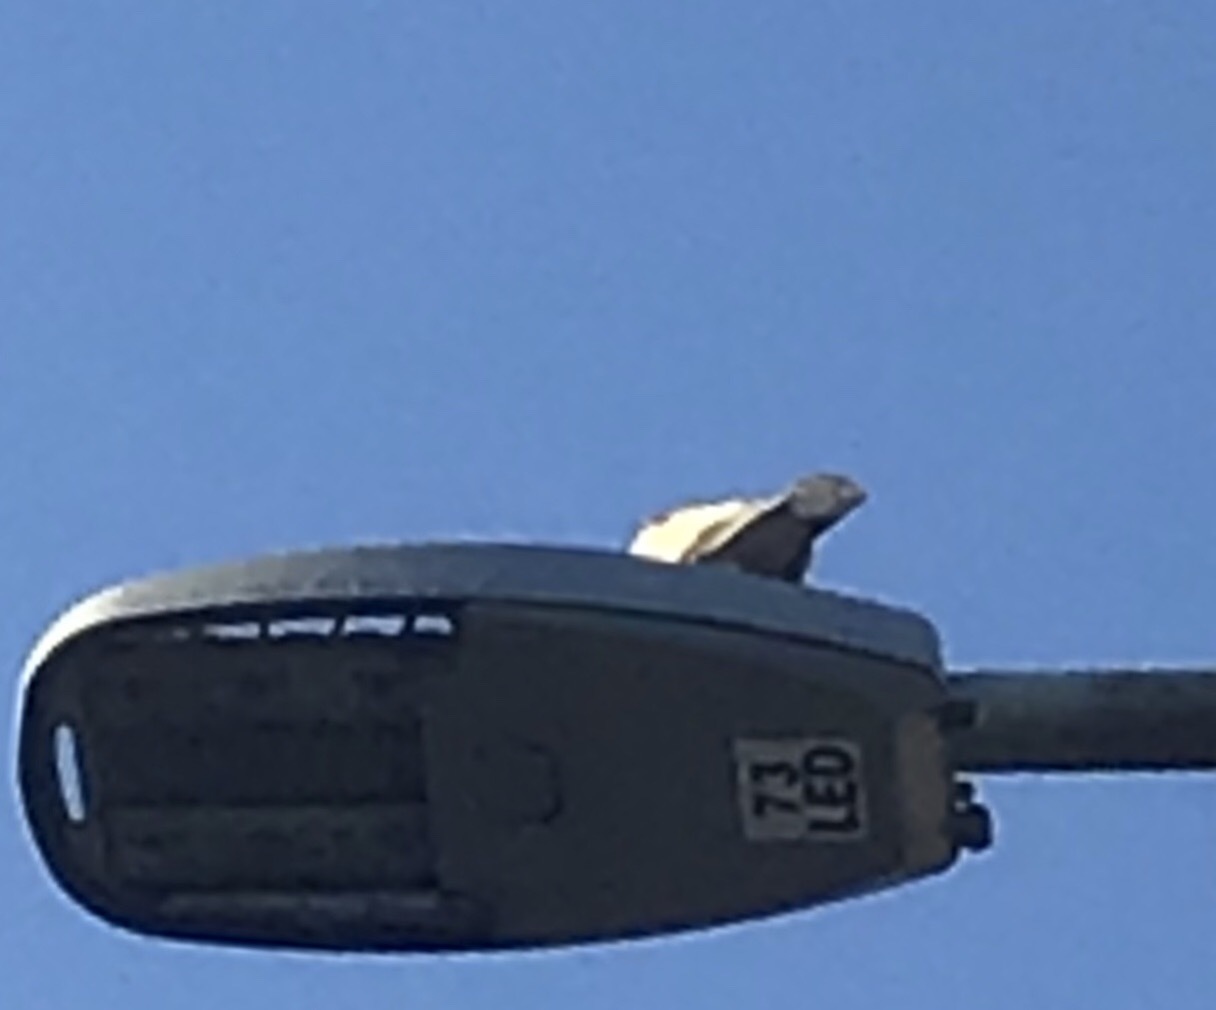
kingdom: Animalia
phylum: Chordata
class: Aves
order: Columbiformes
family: Columbidae
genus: Streptopelia
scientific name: Streptopelia decaocto
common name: Eurasian collared dove
